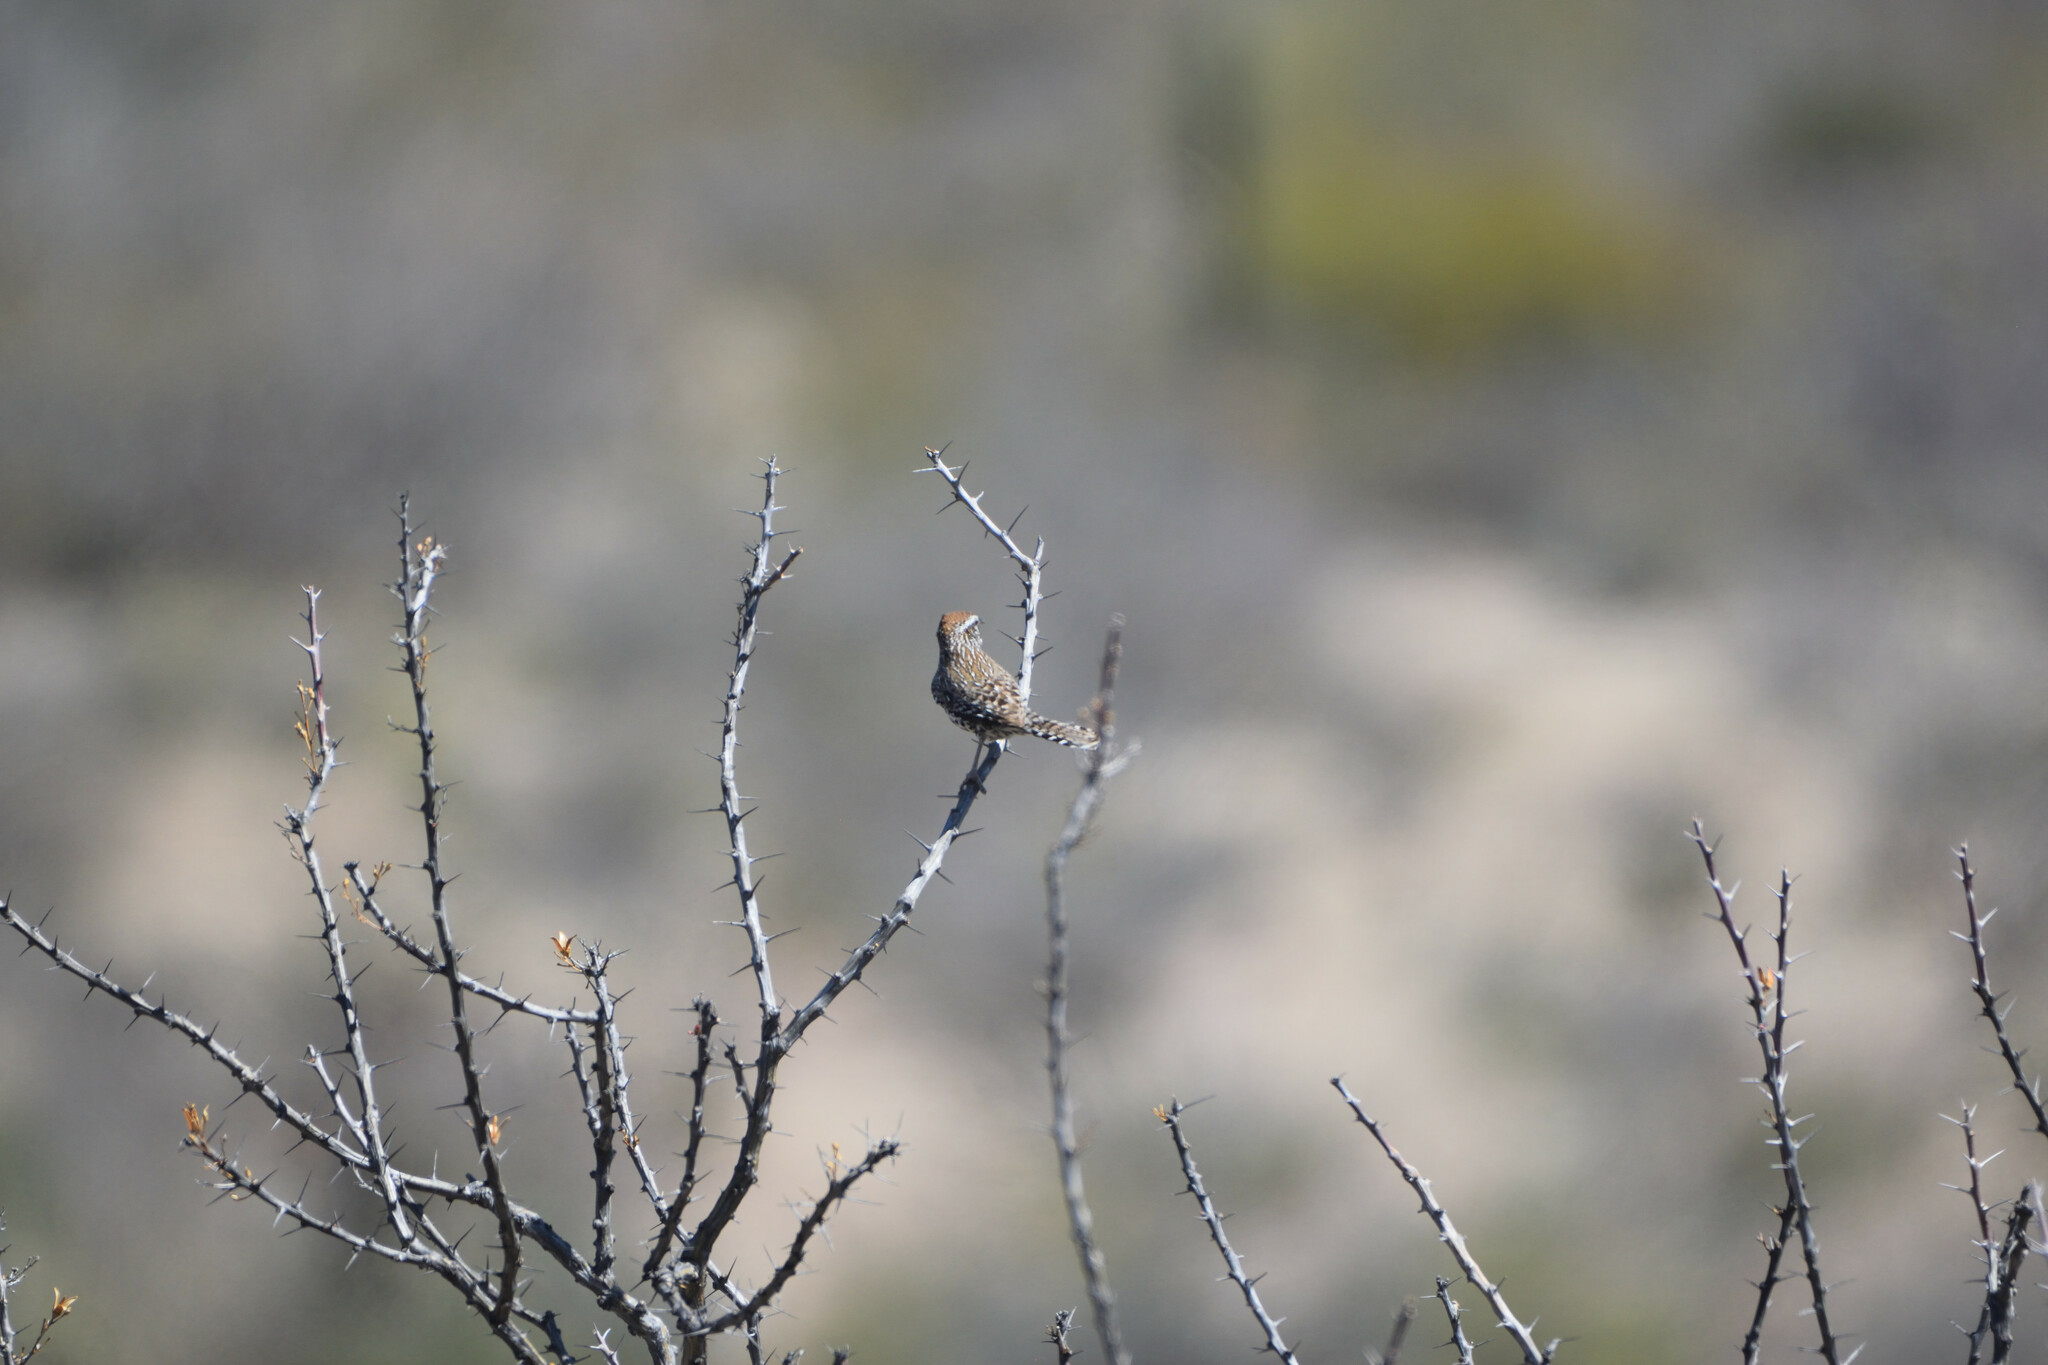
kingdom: Animalia
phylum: Chordata
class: Aves
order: Passeriformes
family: Troglodytidae
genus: Campylorhynchus
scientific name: Campylorhynchus brunneicapillus
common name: Cactus wren
